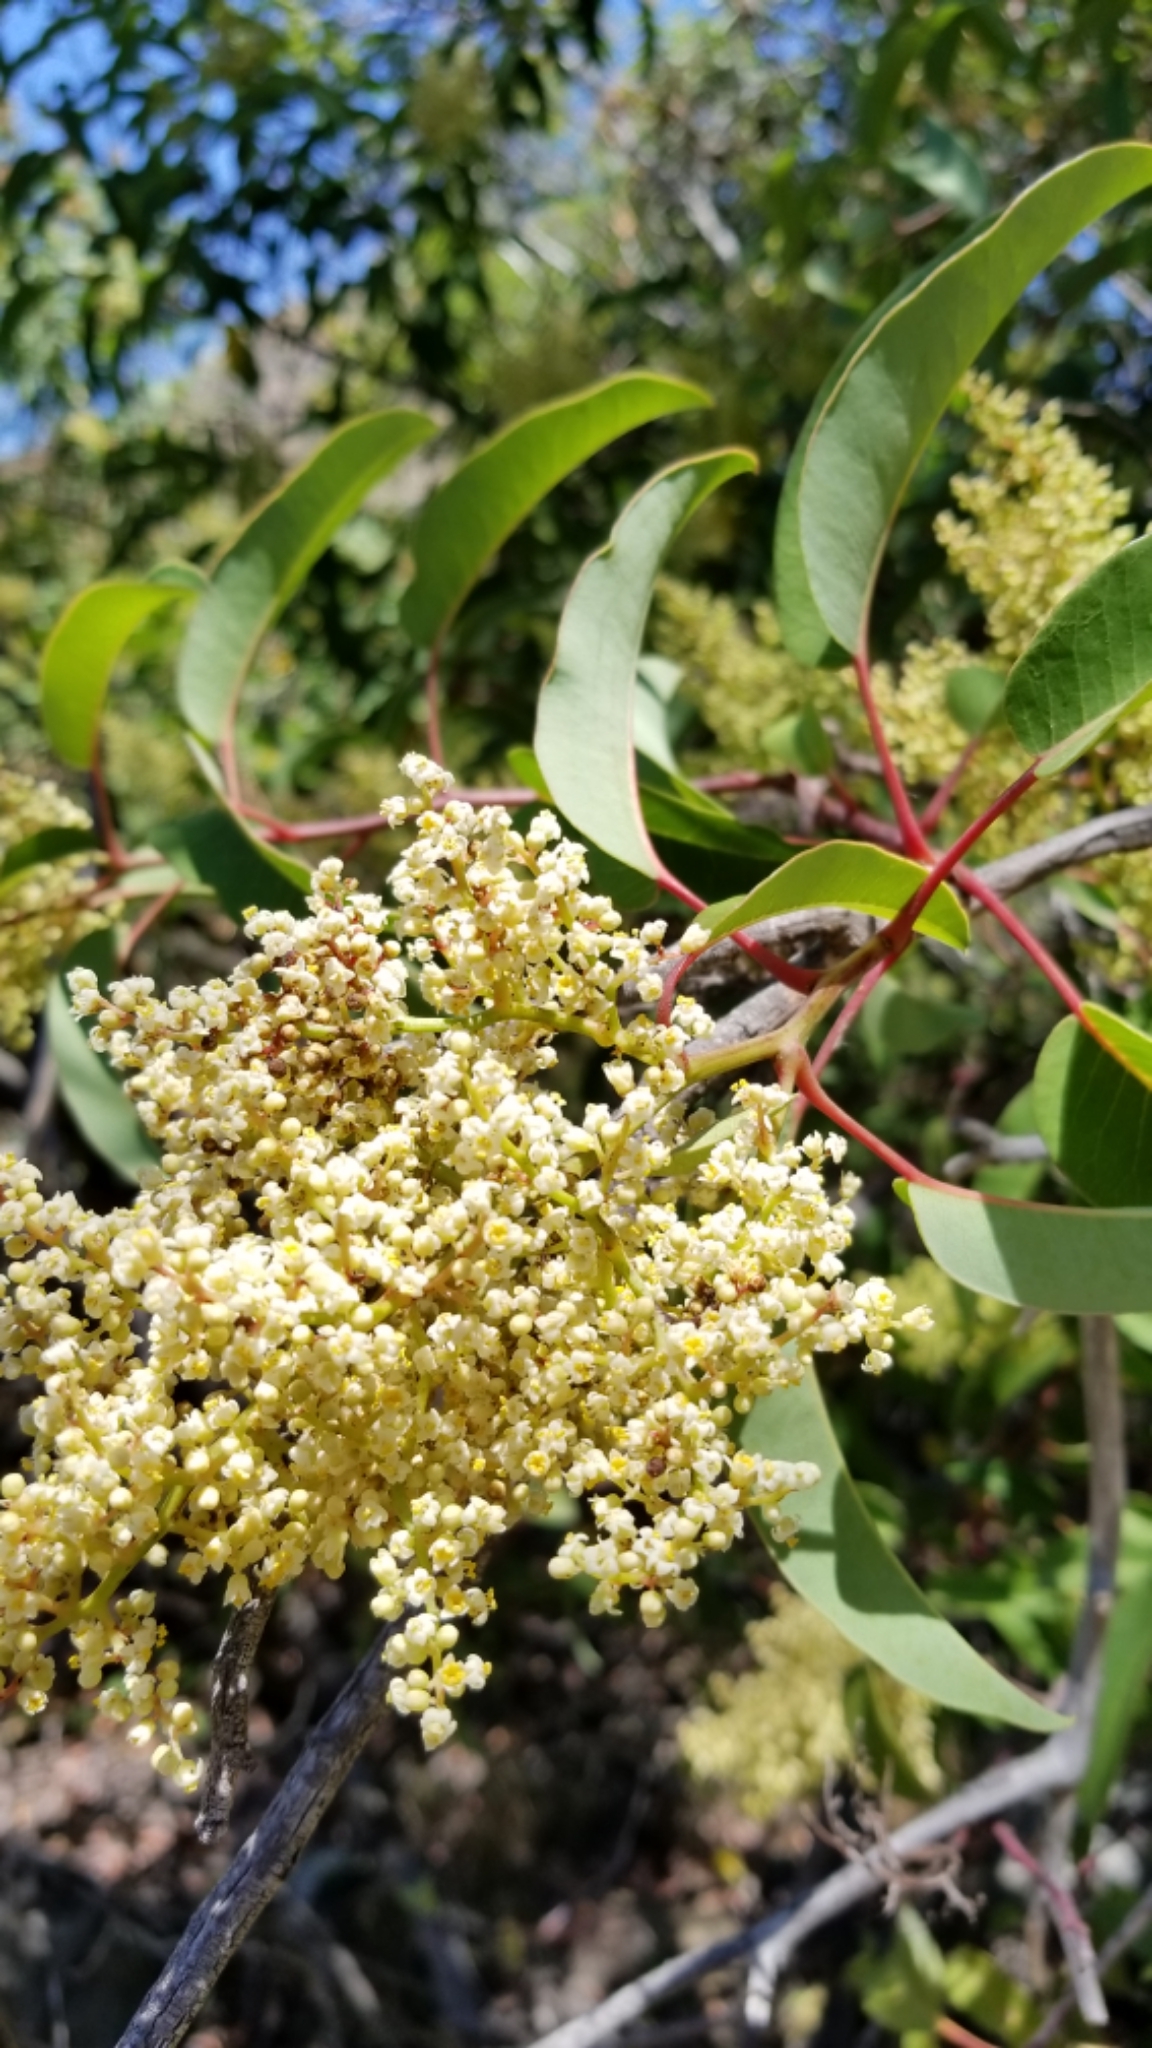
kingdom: Plantae
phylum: Tracheophyta
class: Magnoliopsida
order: Sapindales
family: Anacardiaceae
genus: Malosma
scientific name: Malosma laurina
